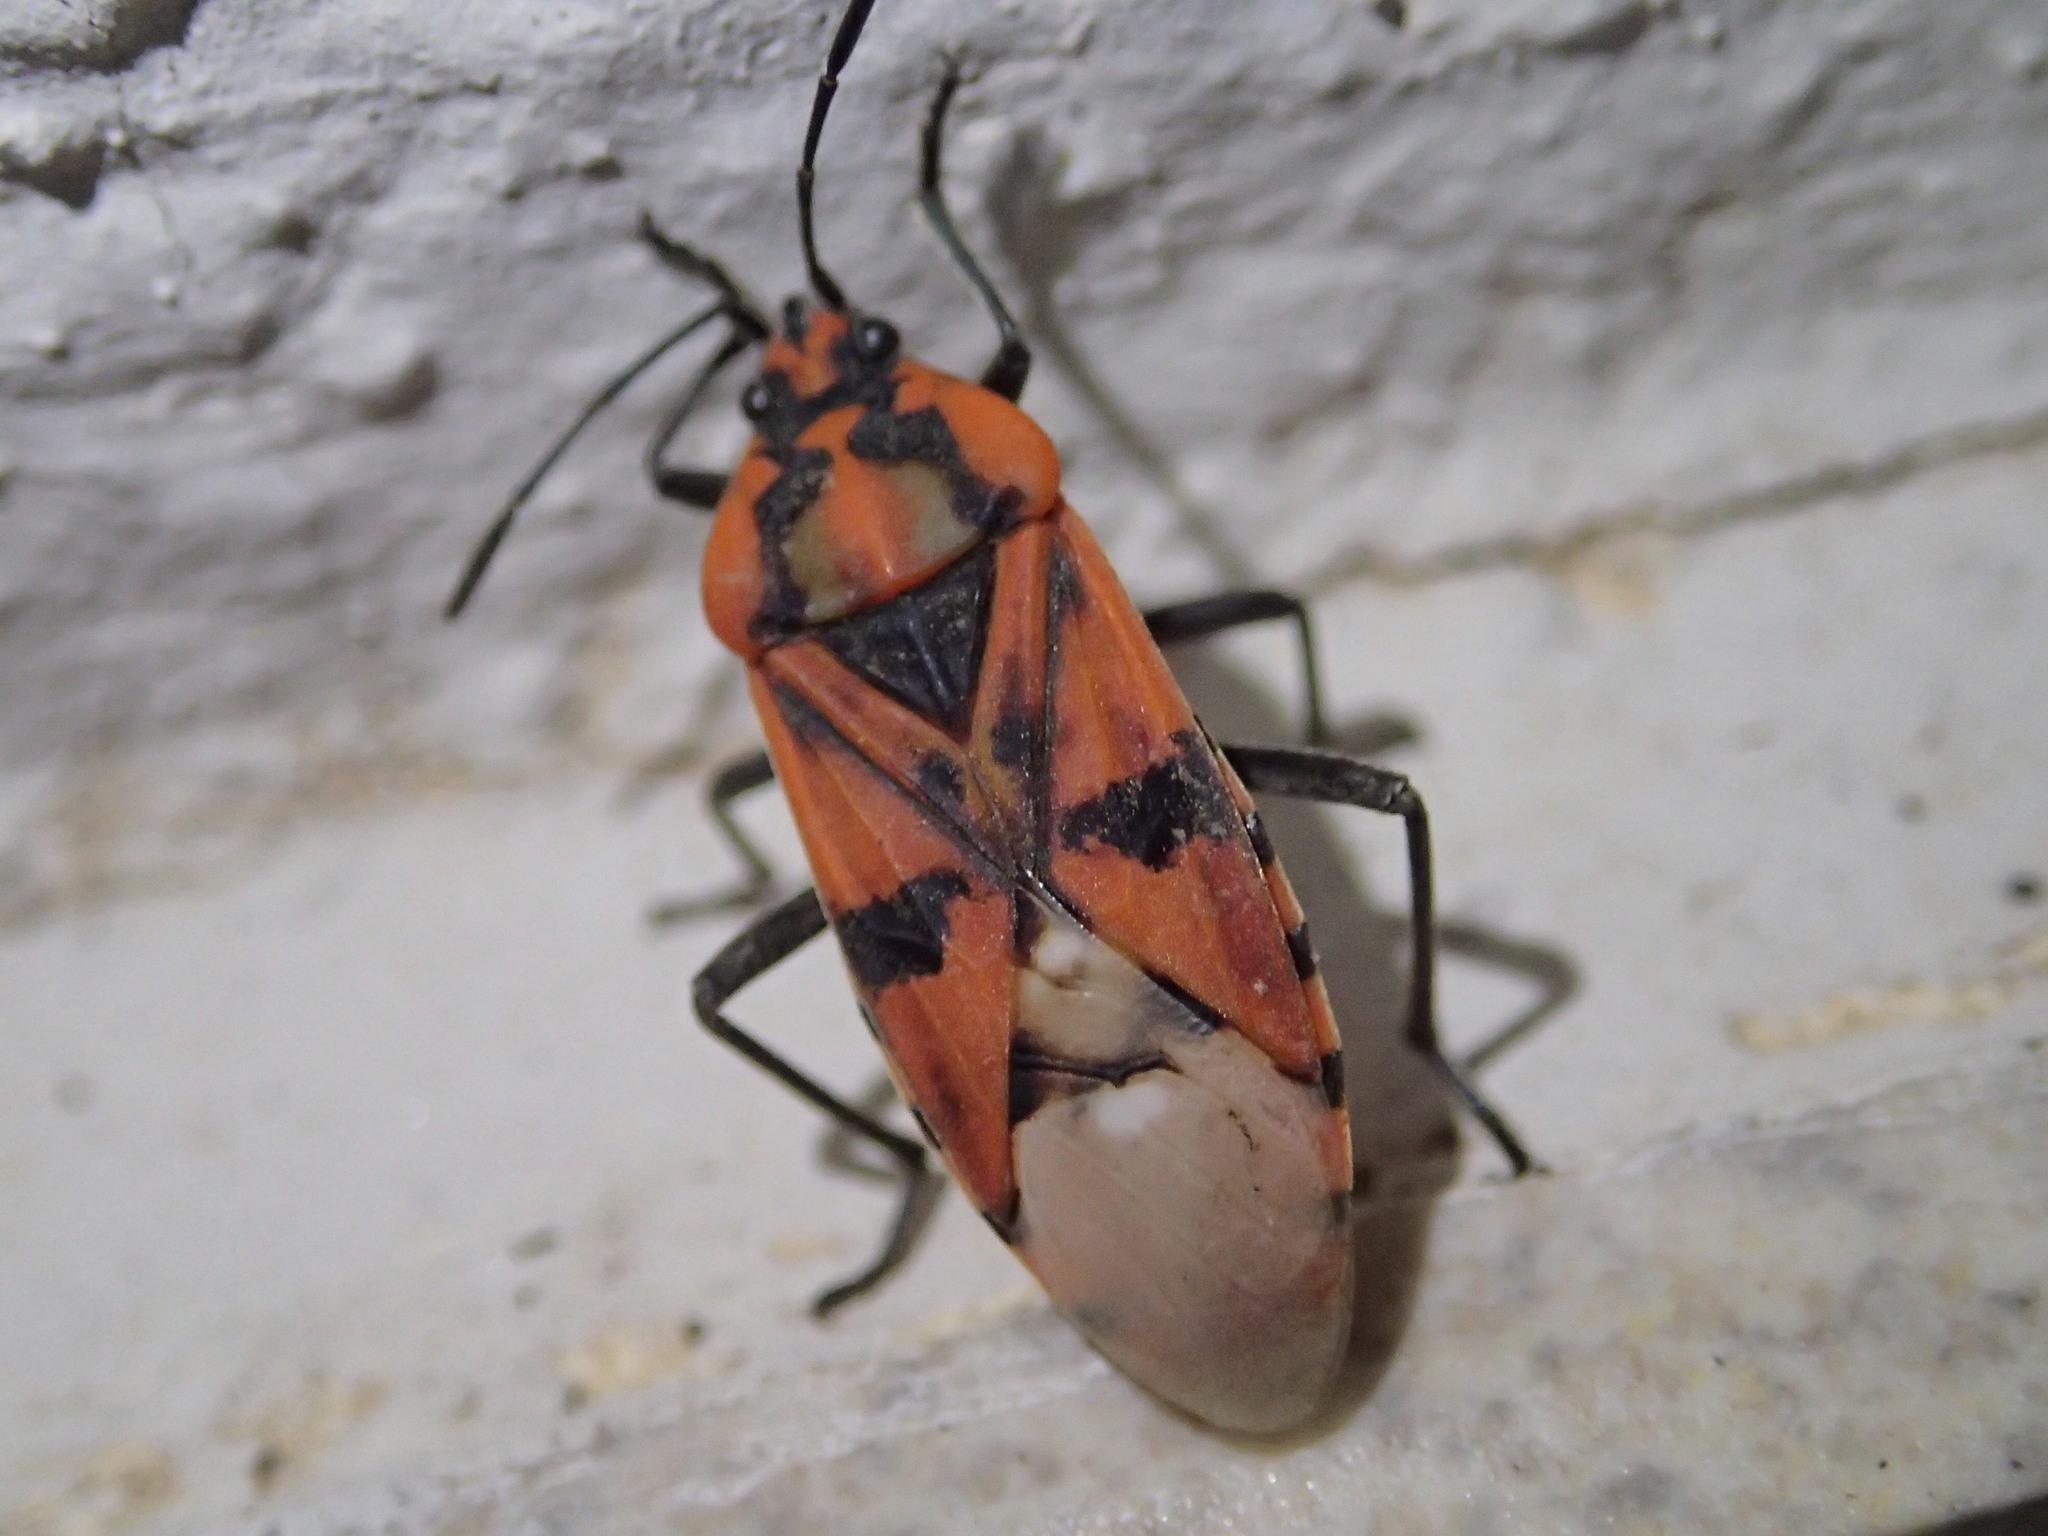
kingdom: Animalia
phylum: Arthropoda
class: Insecta
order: Hemiptera
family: Lygaeidae
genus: Spilostethus
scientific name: Spilostethus pandurus
